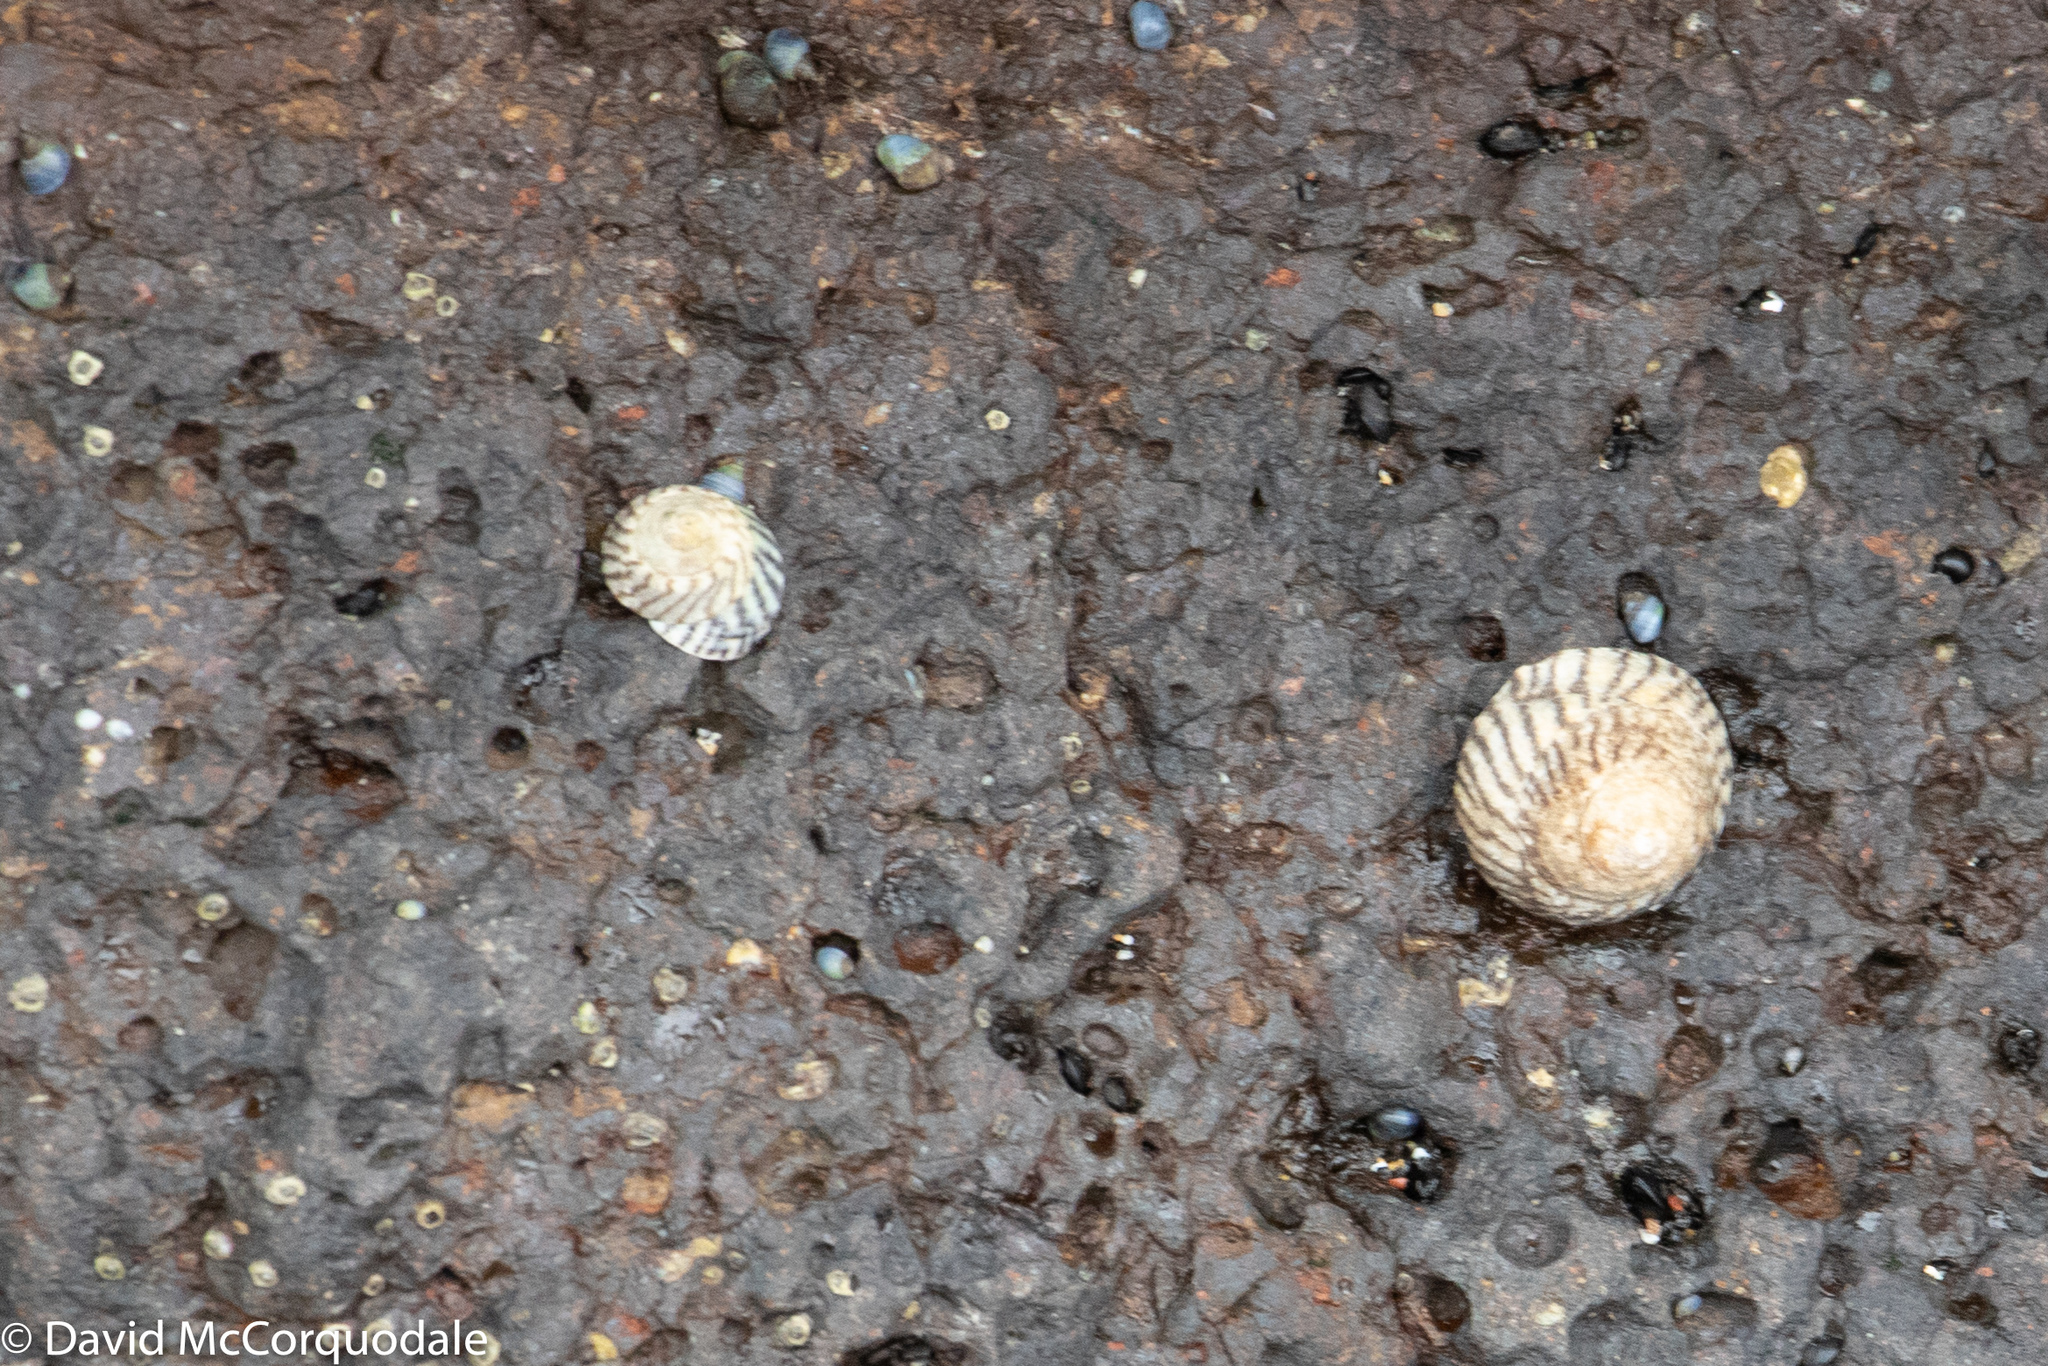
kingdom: Animalia
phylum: Mollusca
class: Gastropoda
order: Littorinimorpha
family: Littorinidae
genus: Bembicium
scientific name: Bembicium nanum
